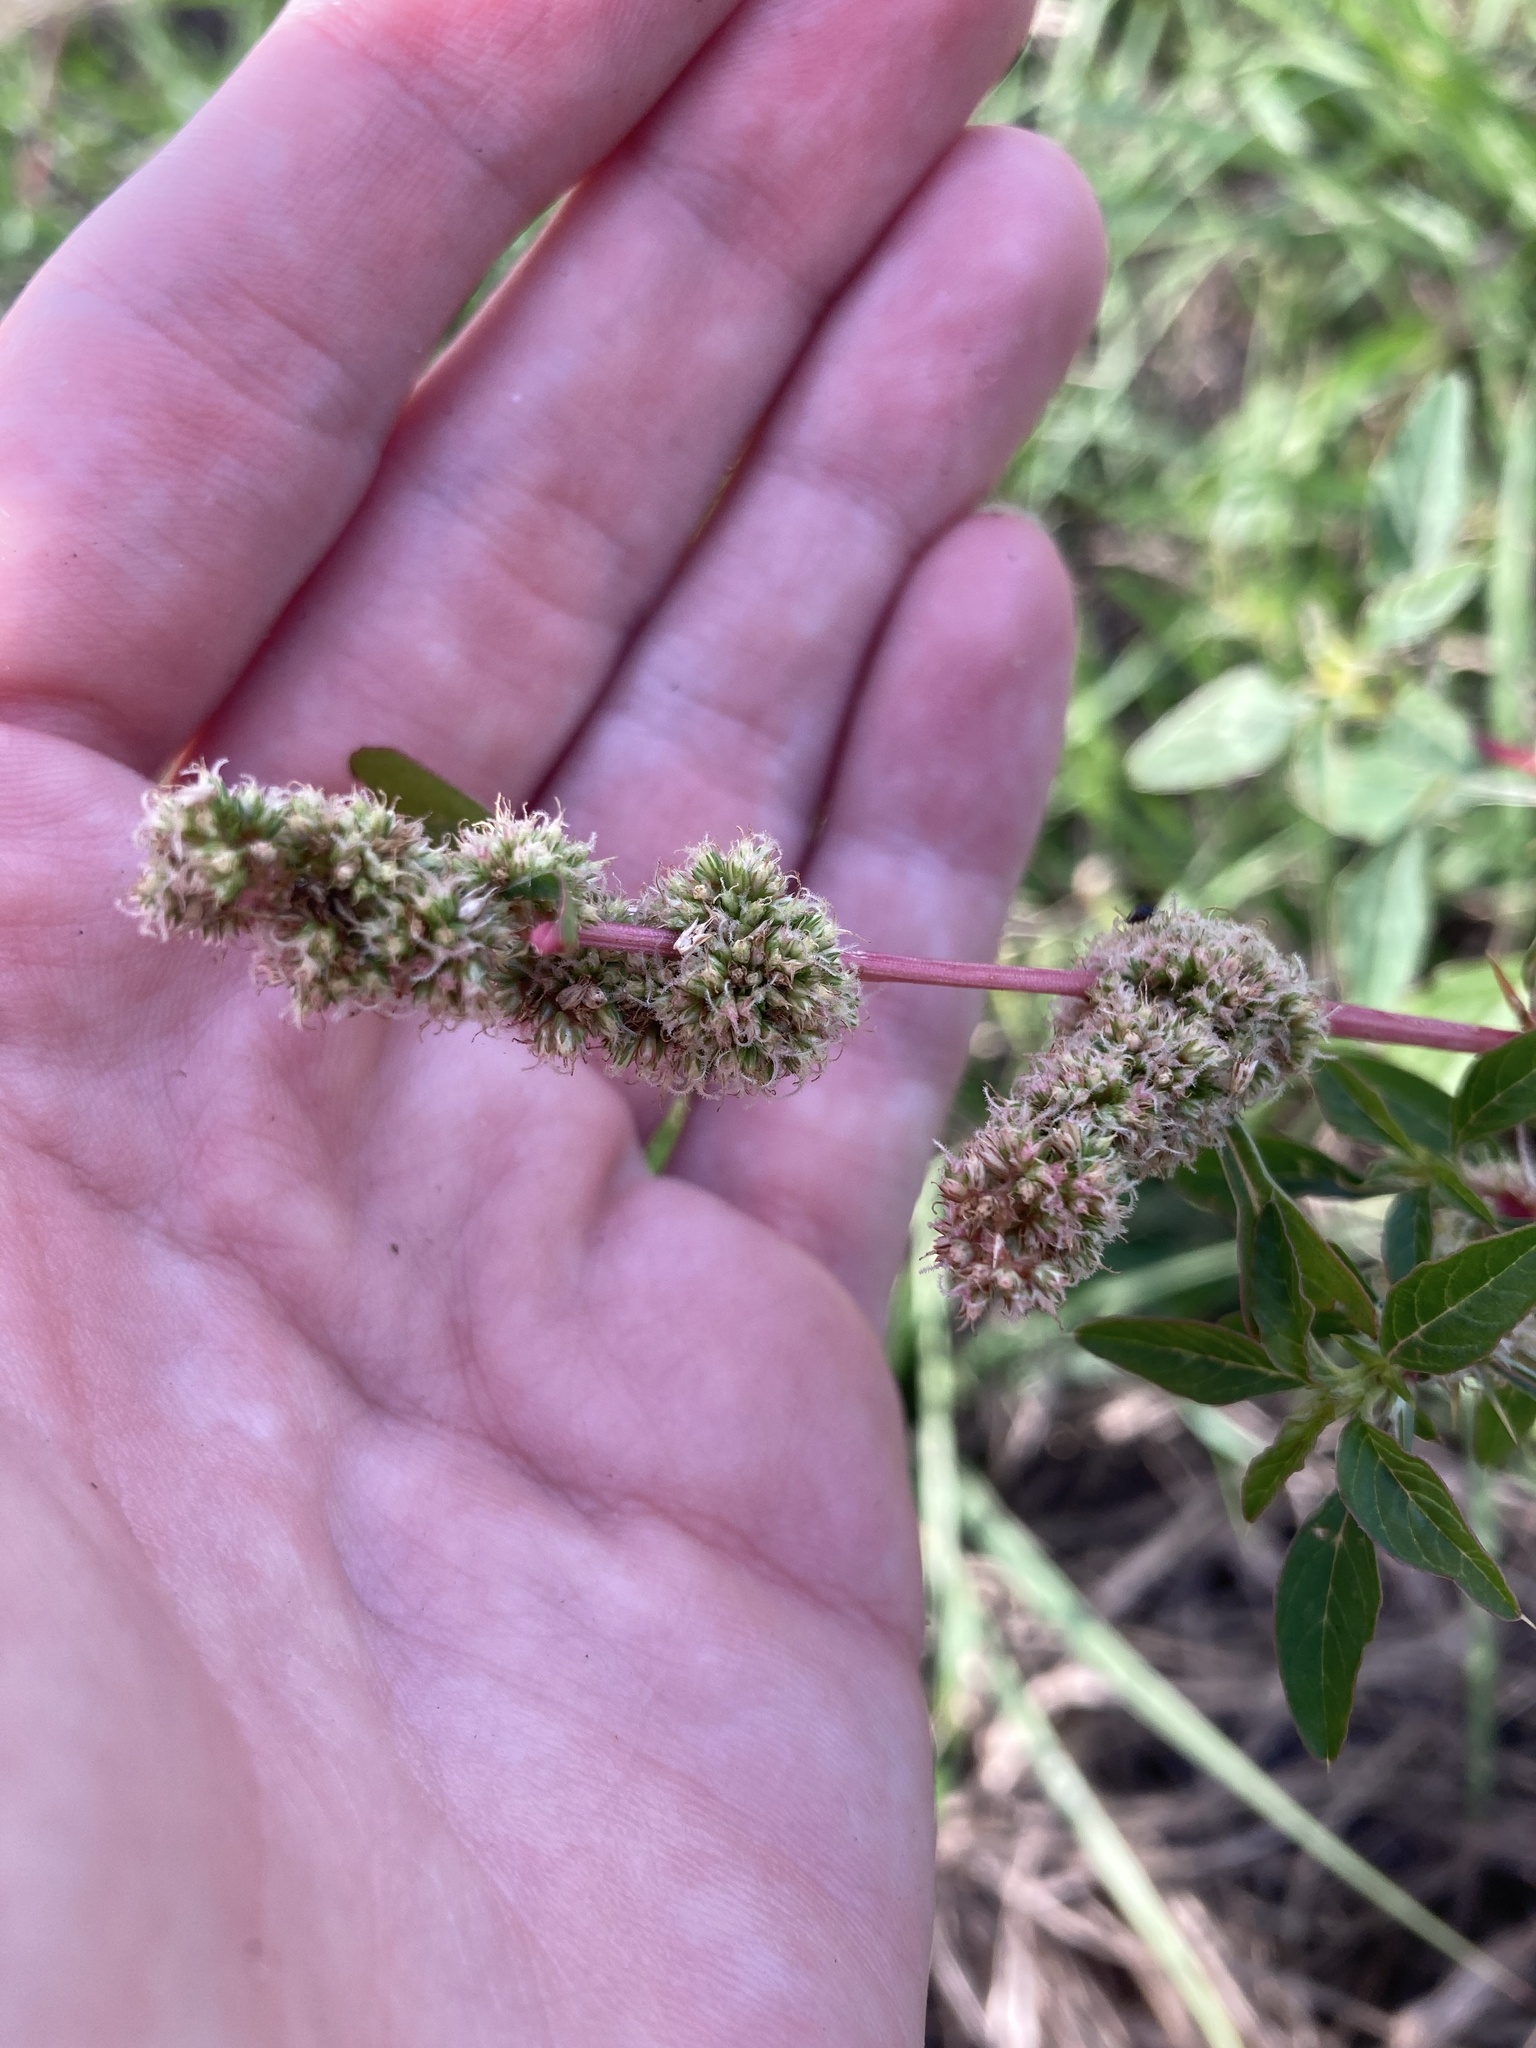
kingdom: Plantae
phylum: Tracheophyta
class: Magnoliopsida
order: Caryophyllales
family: Amaranthaceae
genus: Amaranthus
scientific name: Amaranthus spinosus
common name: Spiny amaranth
